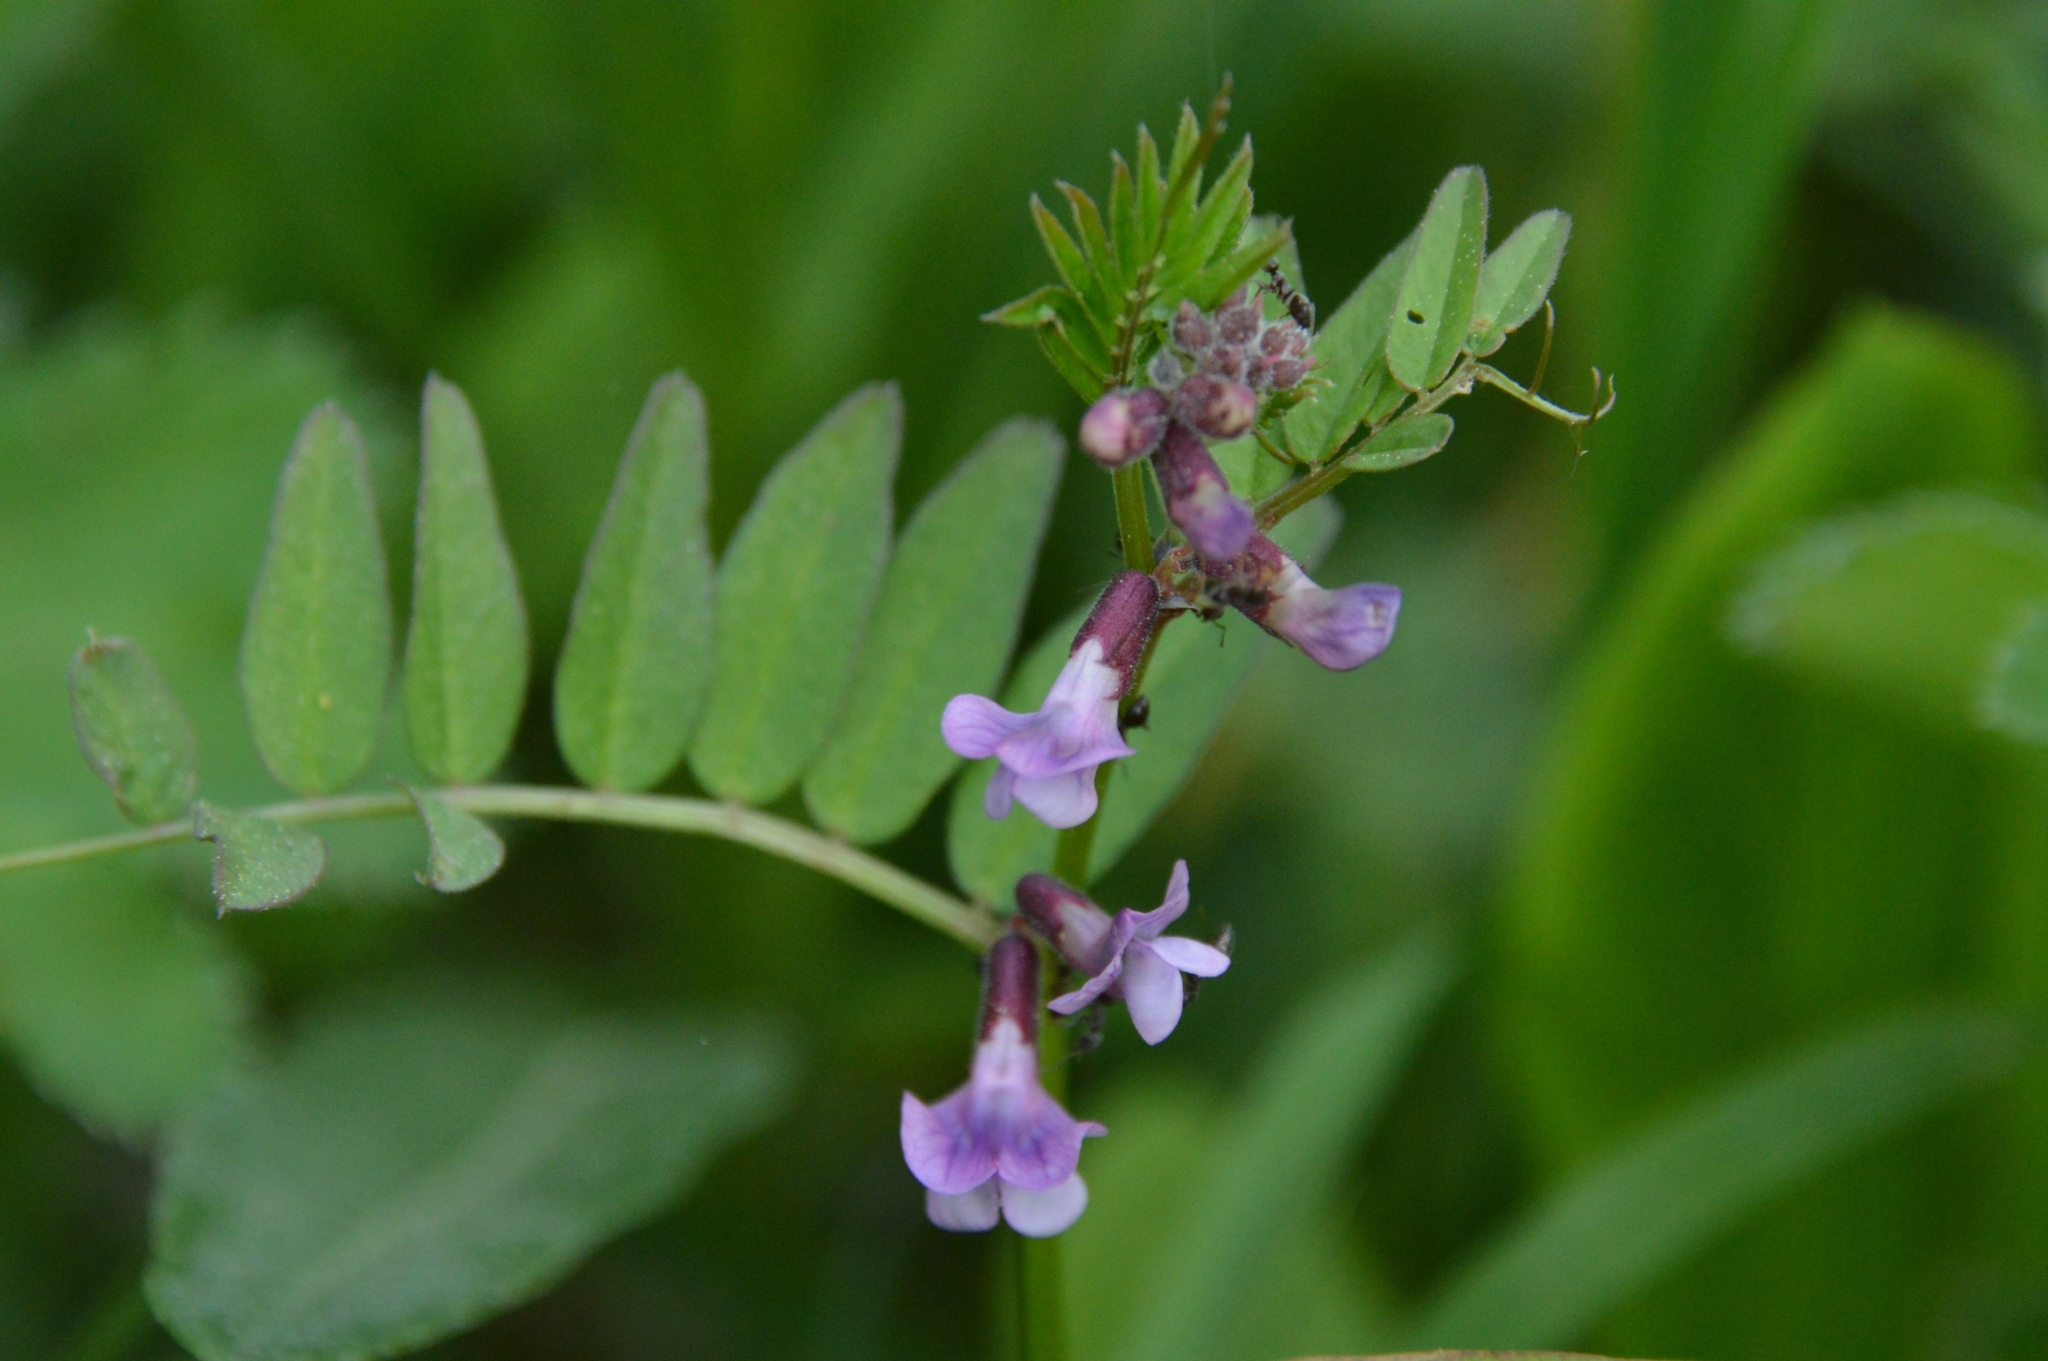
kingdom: Plantae
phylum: Tracheophyta
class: Magnoliopsida
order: Fabales
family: Fabaceae
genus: Vicia
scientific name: Vicia sepium
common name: Bush vetch
